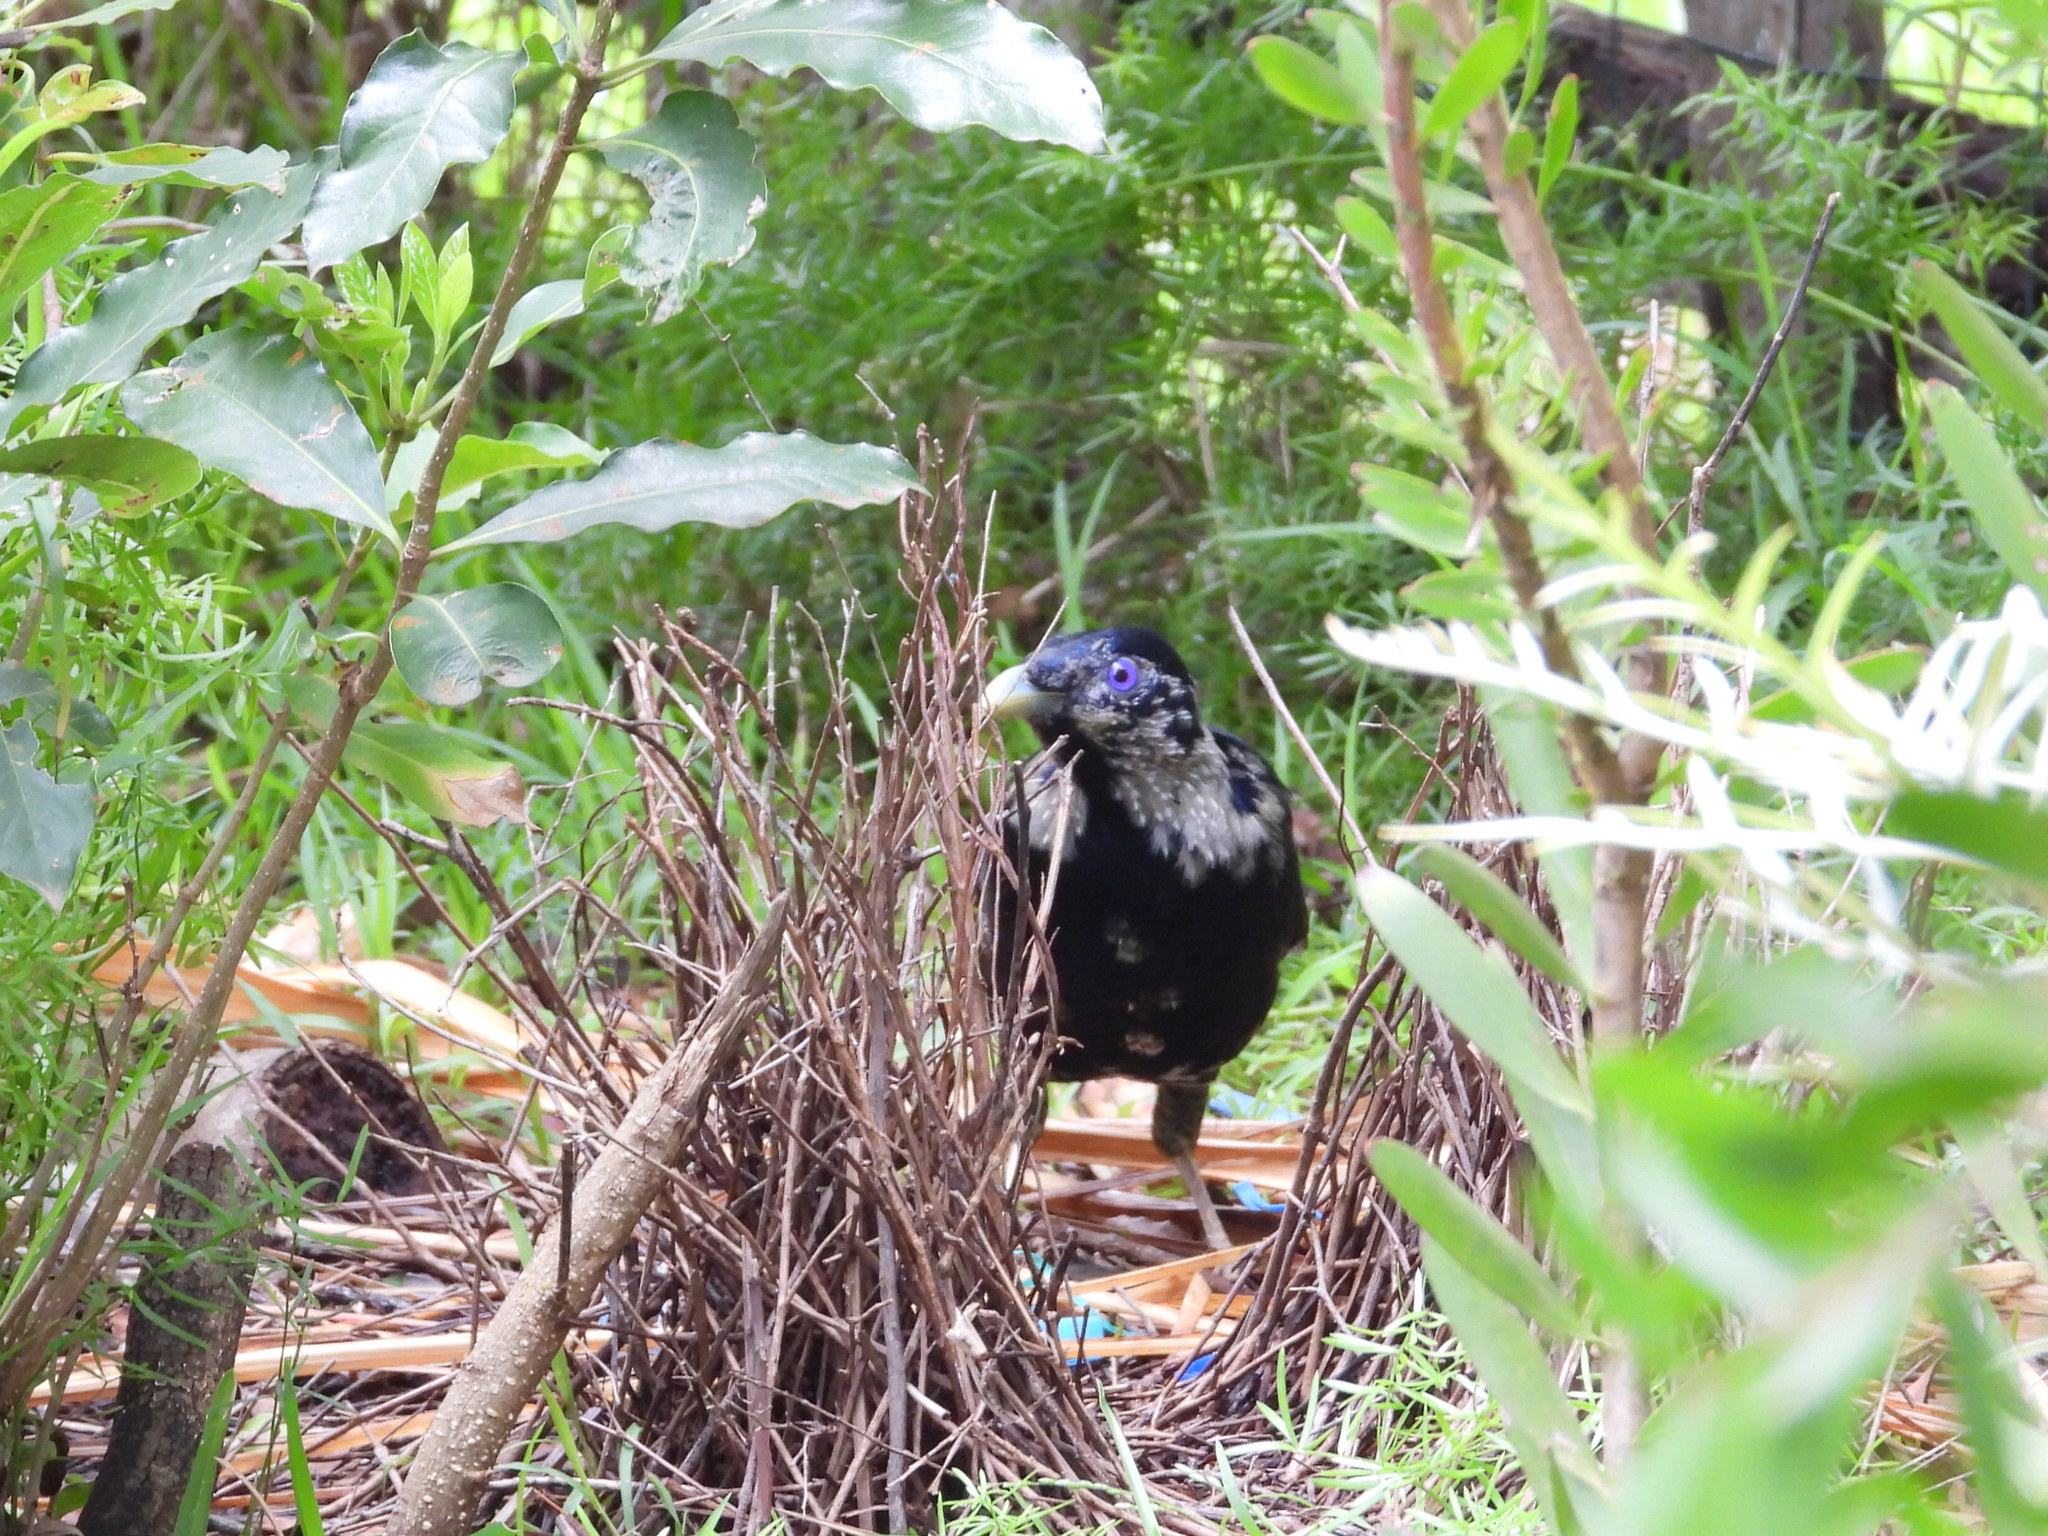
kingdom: Animalia
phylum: Chordata
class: Aves
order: Passeriformes
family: Ptilonorhynchidae
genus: Ptilonorhynchus
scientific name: Ptilonorhynchus violaceus
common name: Satin bowerbird
